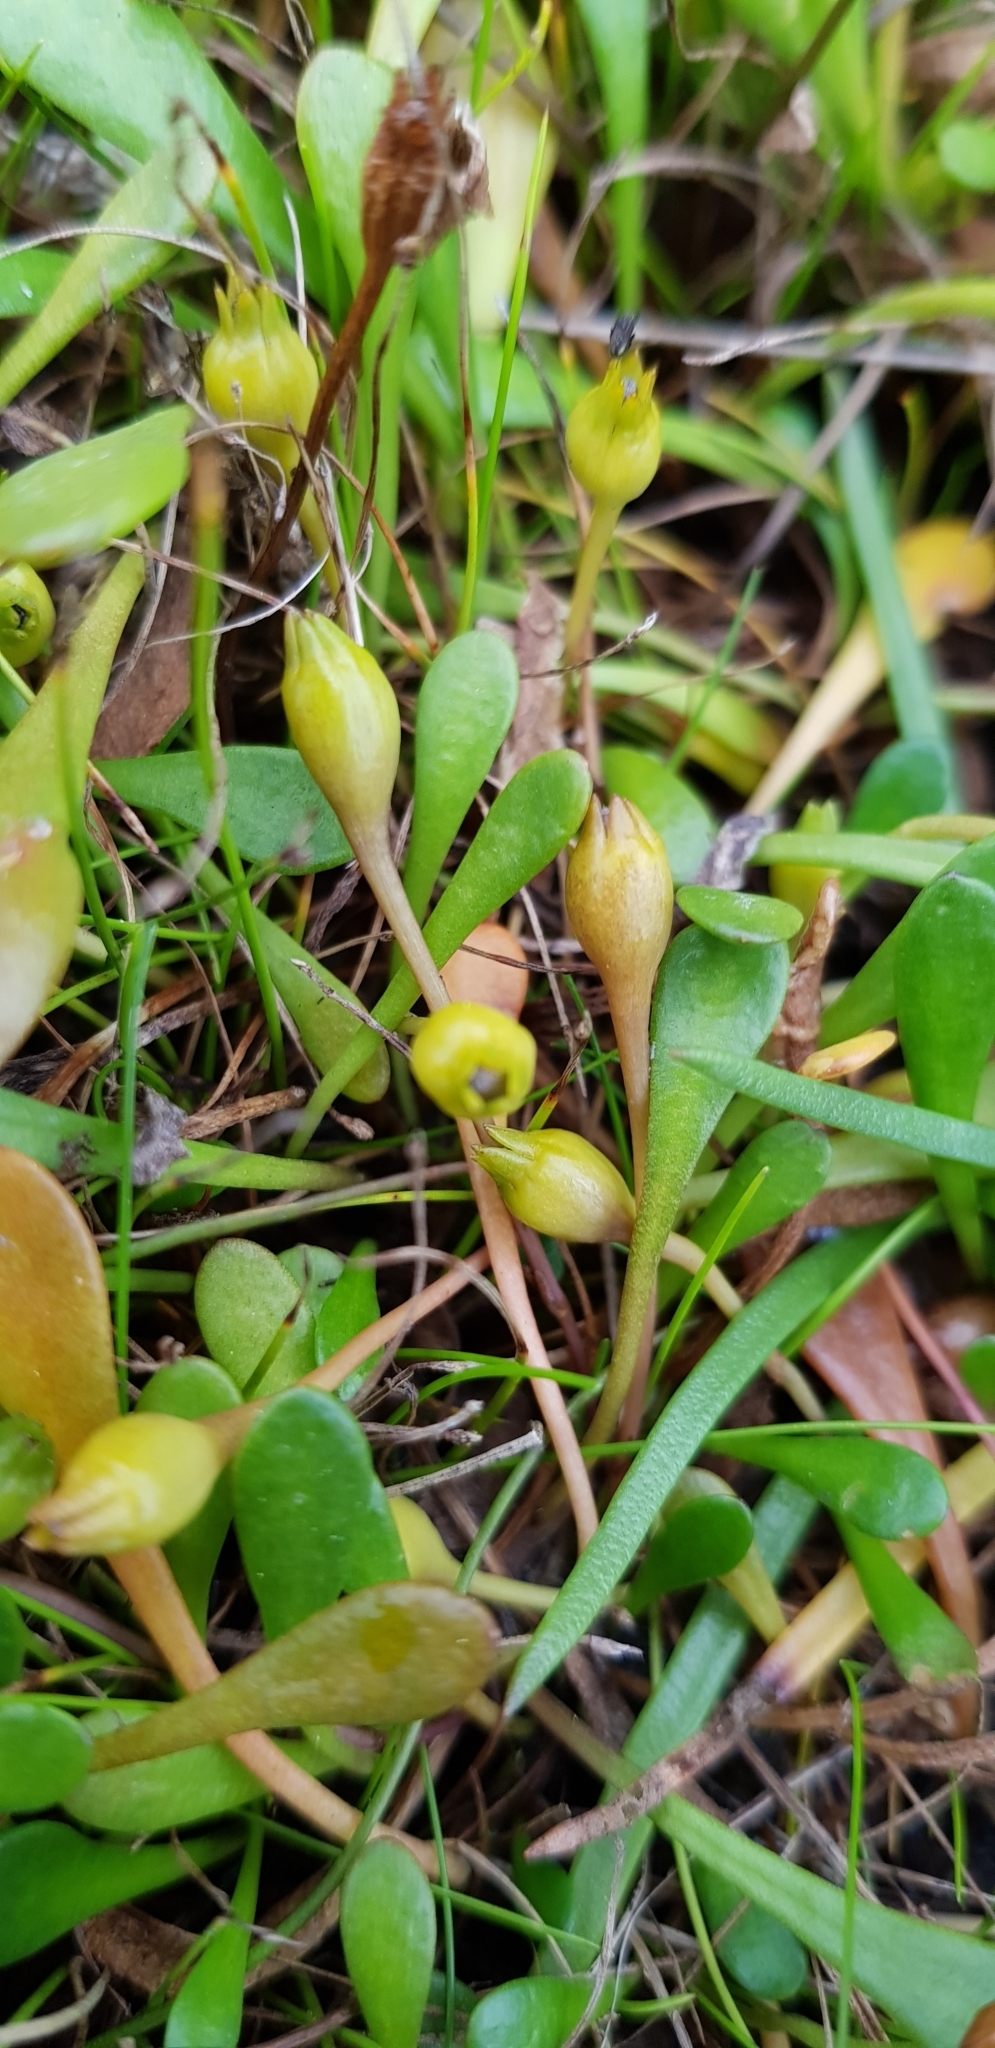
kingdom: Plantae
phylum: Tracheophyta
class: Magnoliopsida
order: Asterales
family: Goodeniaceae
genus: Goodenia
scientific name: Goodenia radicans
